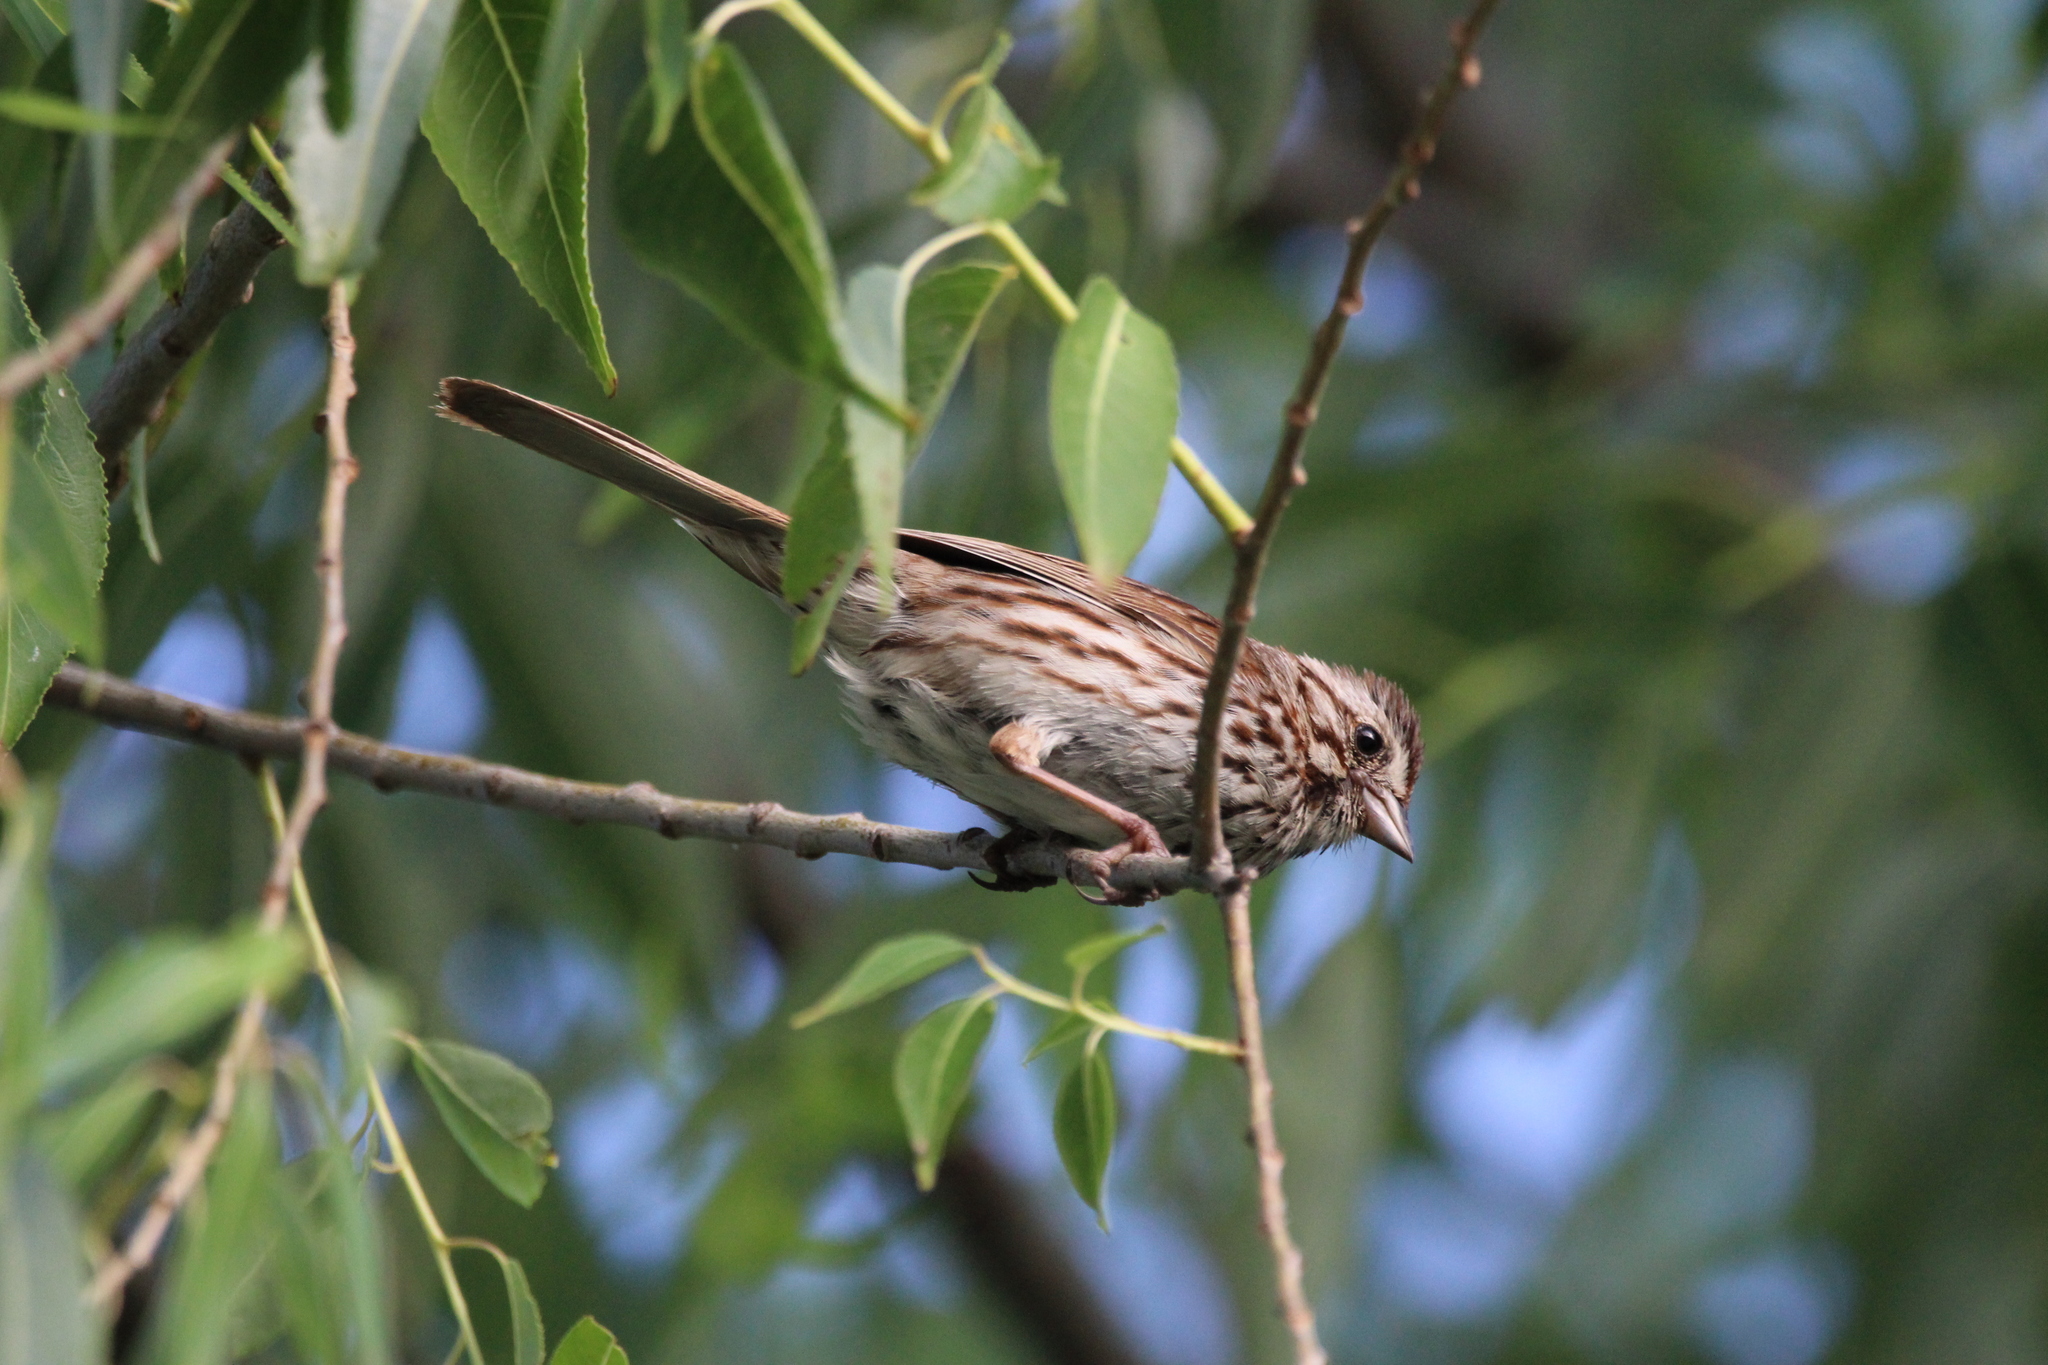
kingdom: Animalia
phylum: Chordata
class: Aves
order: Passeriformes
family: Passerellidae
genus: Melospiza
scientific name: Melospiza melodia
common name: Song sparrow
